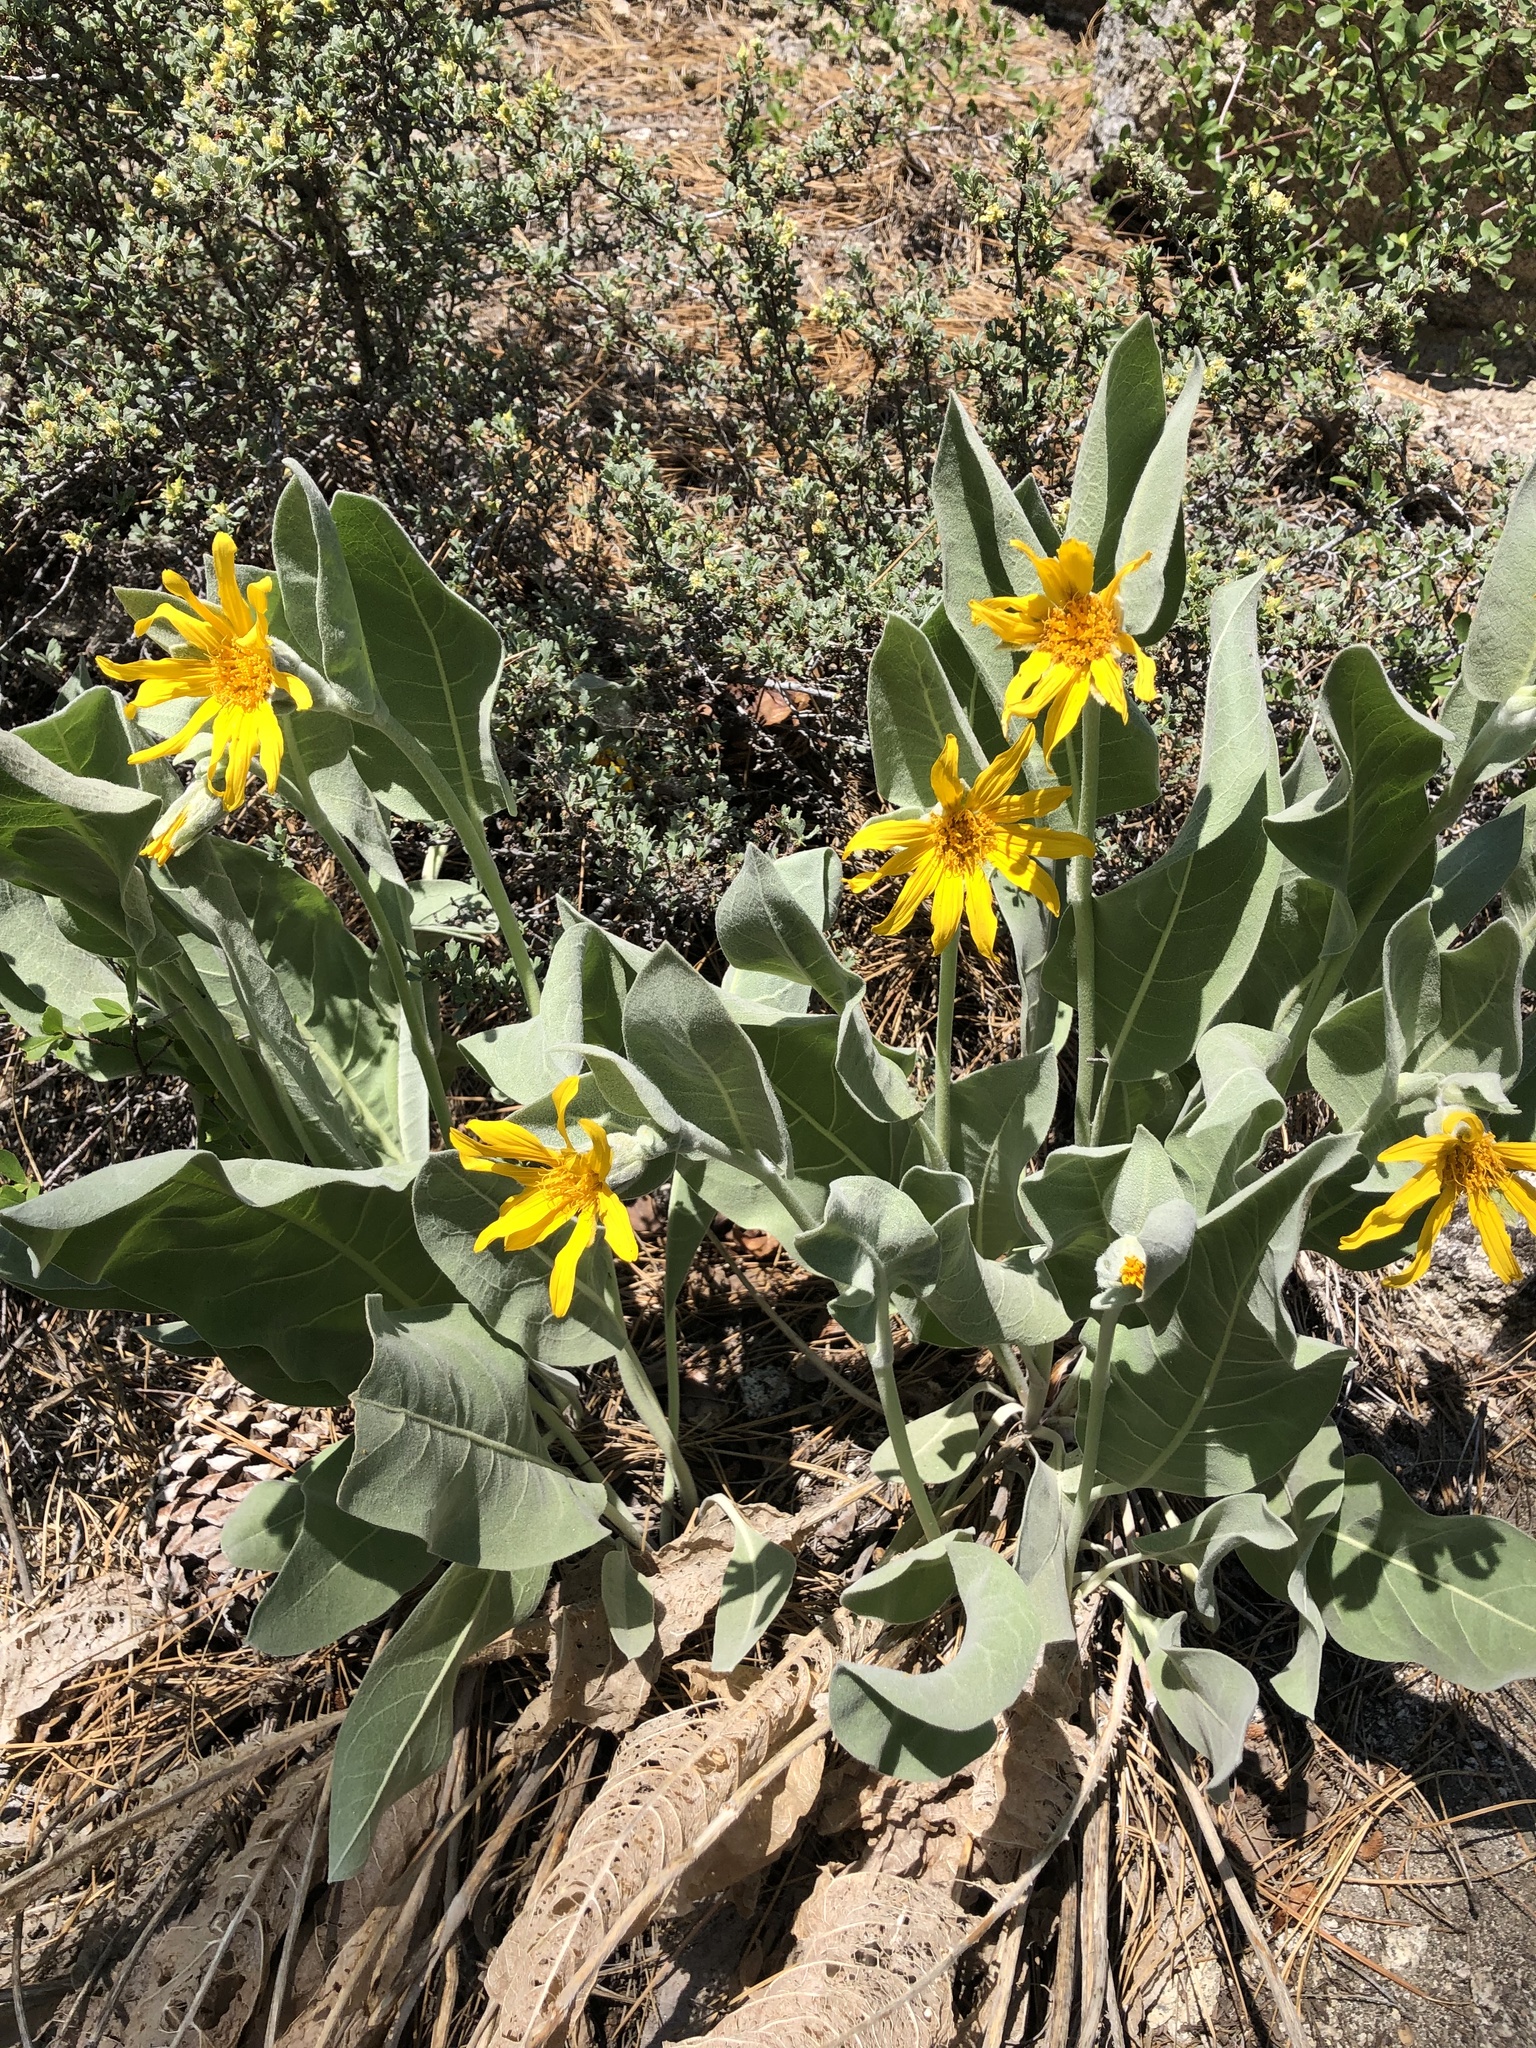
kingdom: Plantae
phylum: Tracheophyta
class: Magnoliopsida
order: Asterales
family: Asteraceae
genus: Wyethia
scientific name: Wyethia mollis
